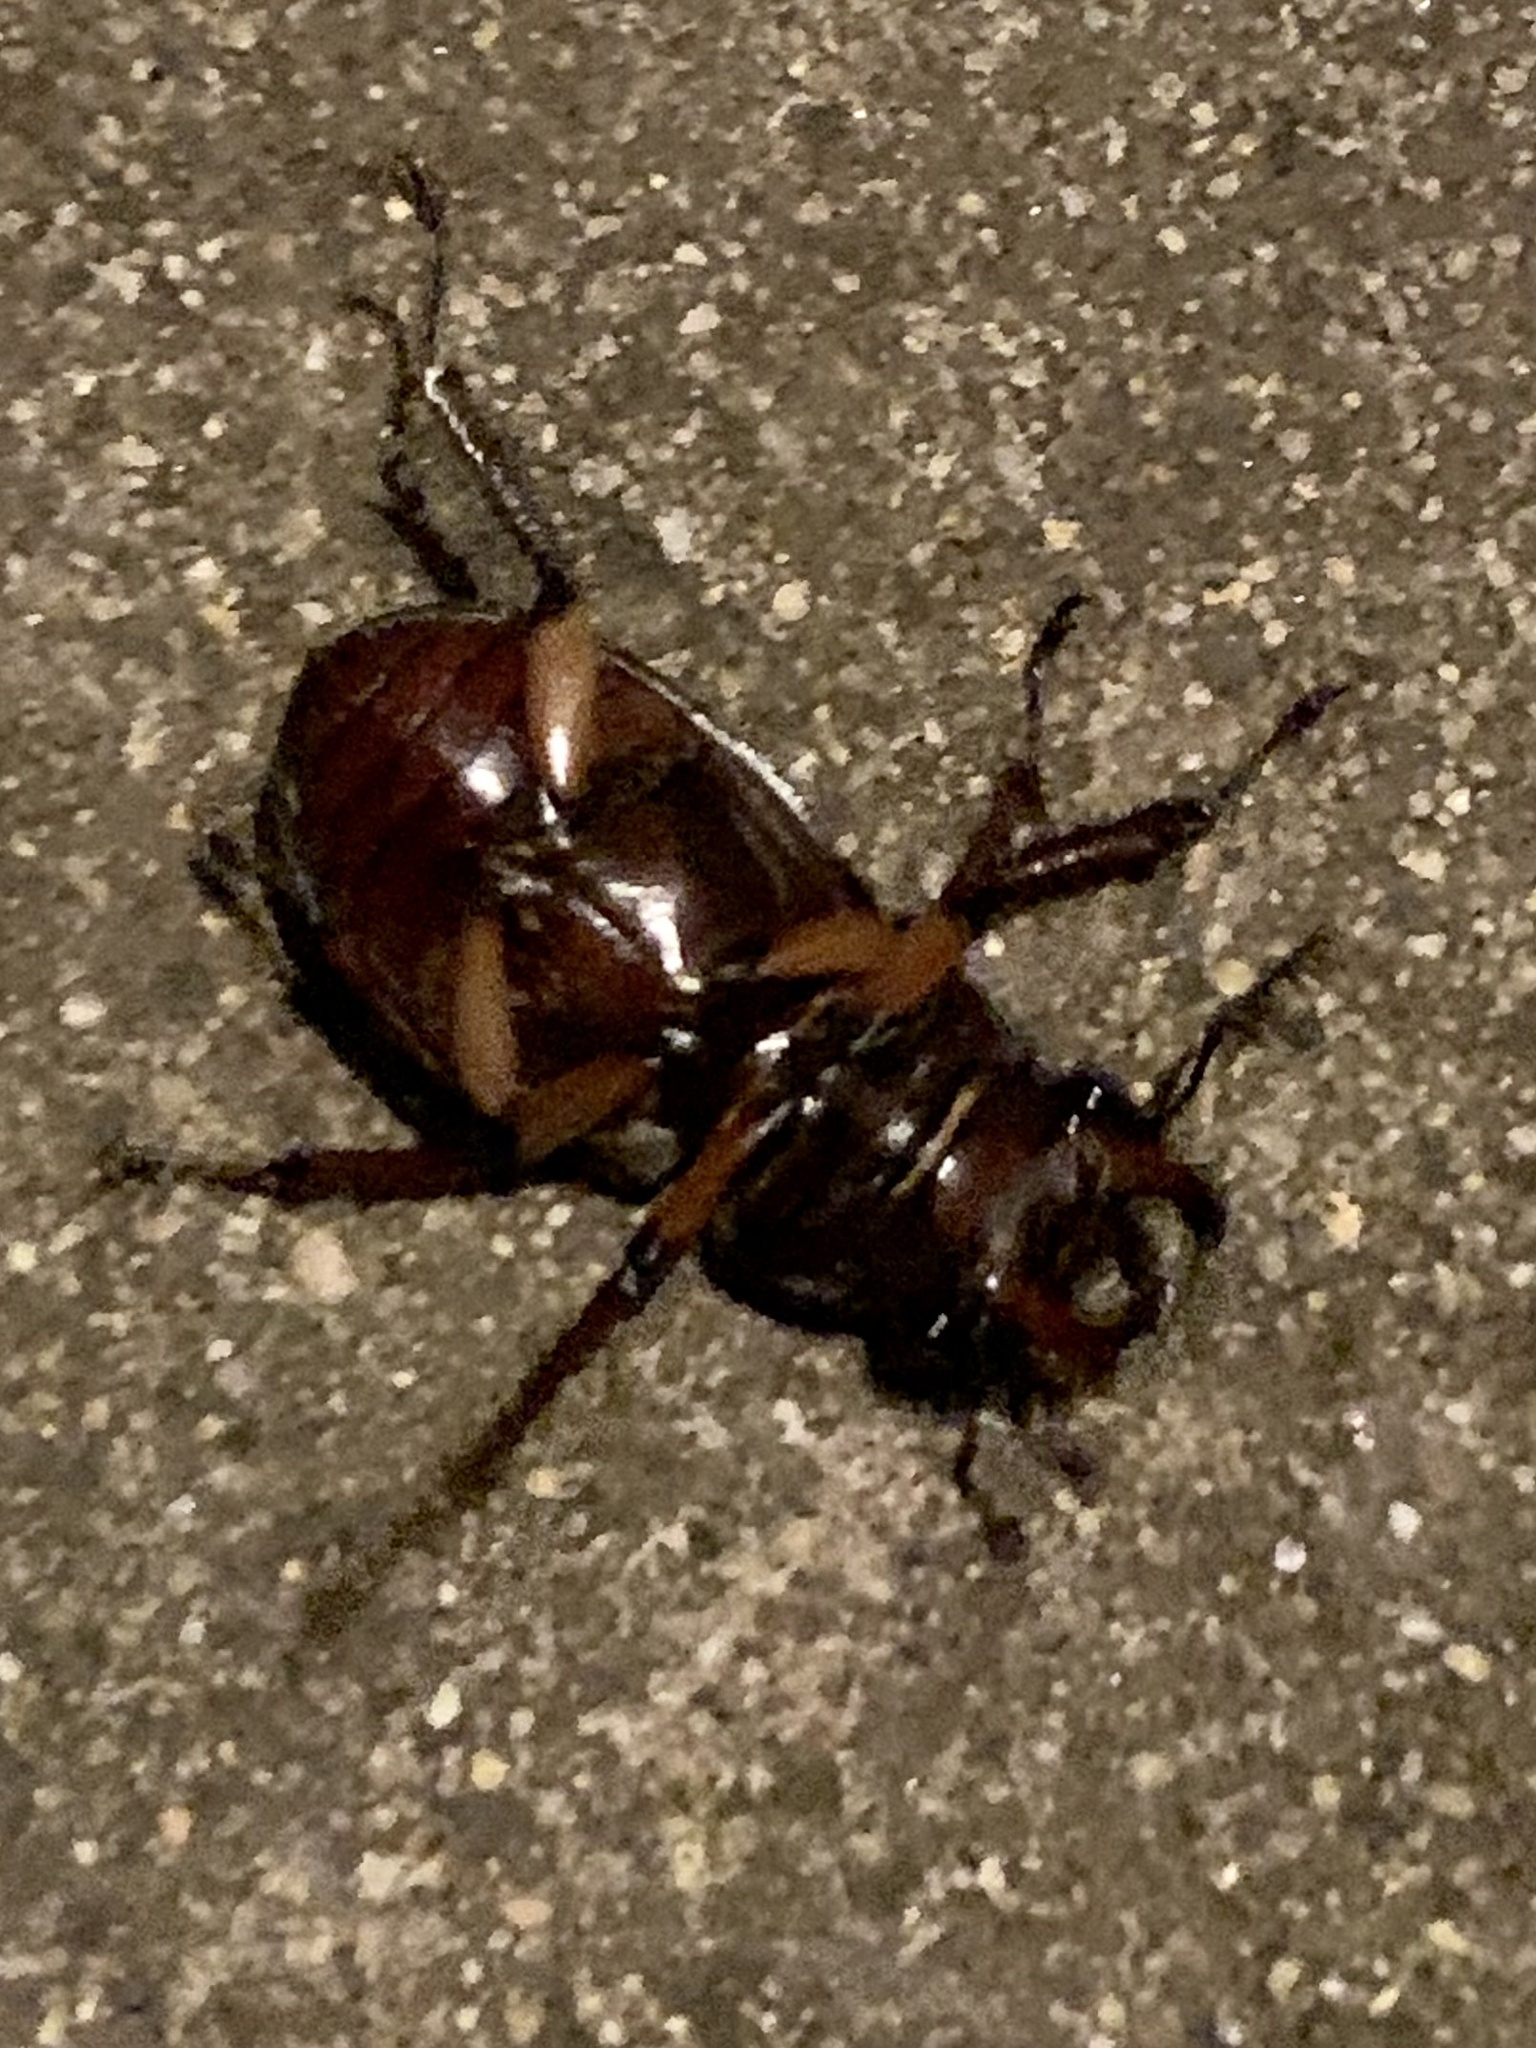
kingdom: Animalia
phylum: Arthropoda
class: Insecta
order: Coleoptera
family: Lucanidae
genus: Lucanus
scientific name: Lucanus capreolus
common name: Stag beetle
